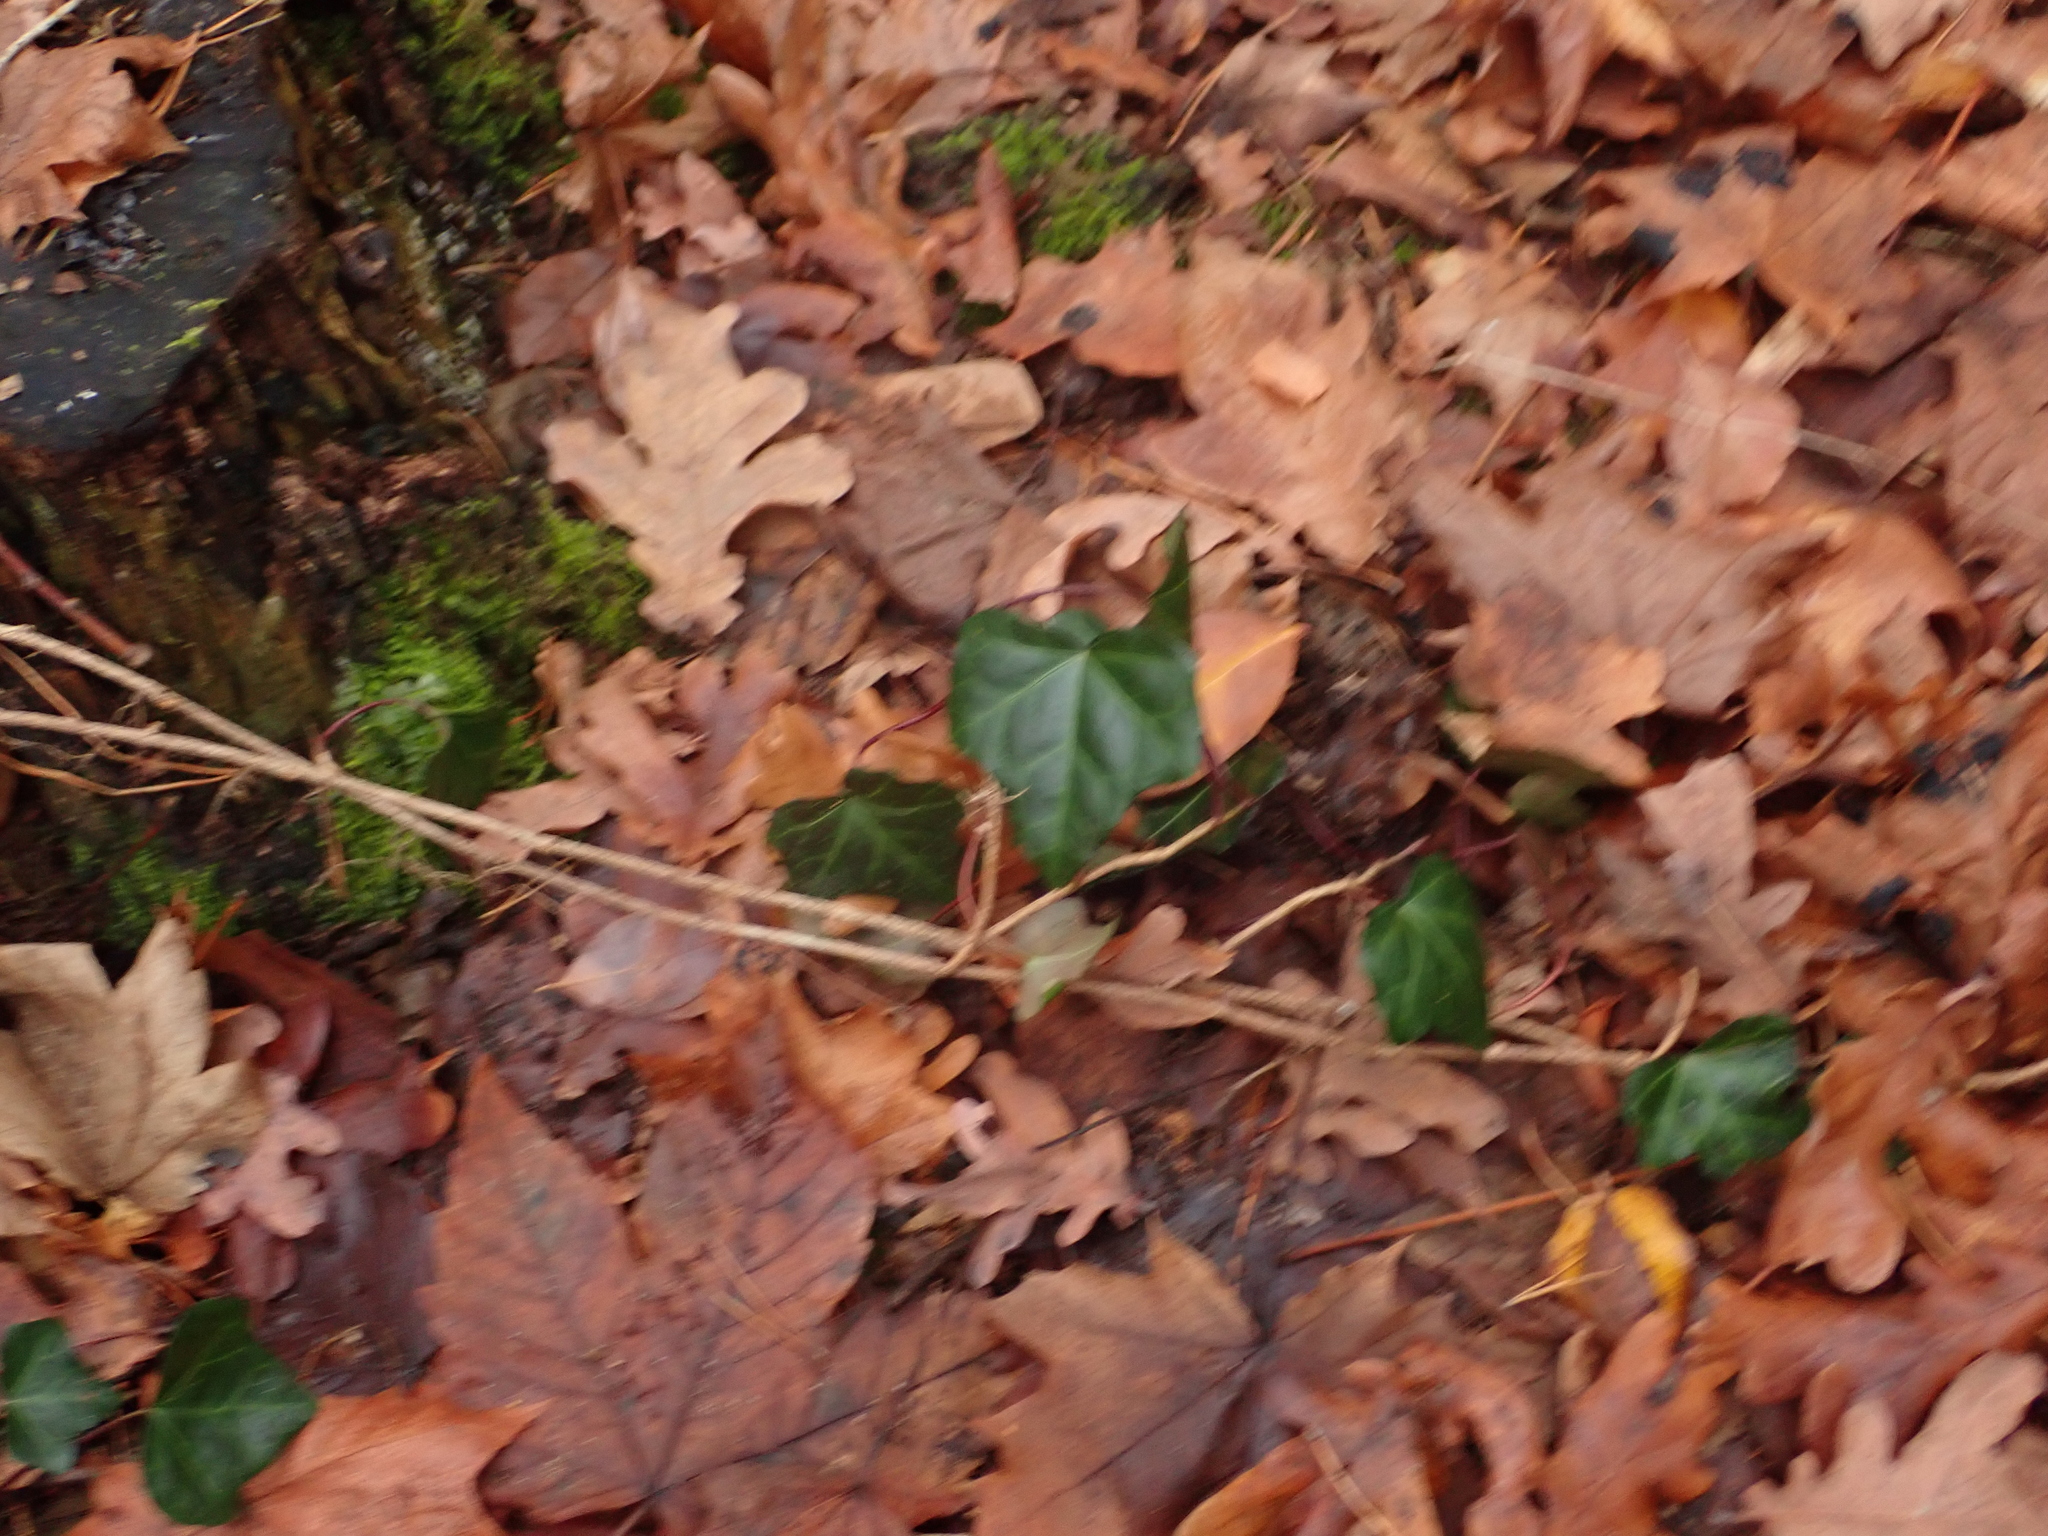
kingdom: Plantae
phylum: Tracheophyta
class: Magnoliopsida
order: Apiales
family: Araliaceae
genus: Hedera
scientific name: Hedera helix
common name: Ivy
